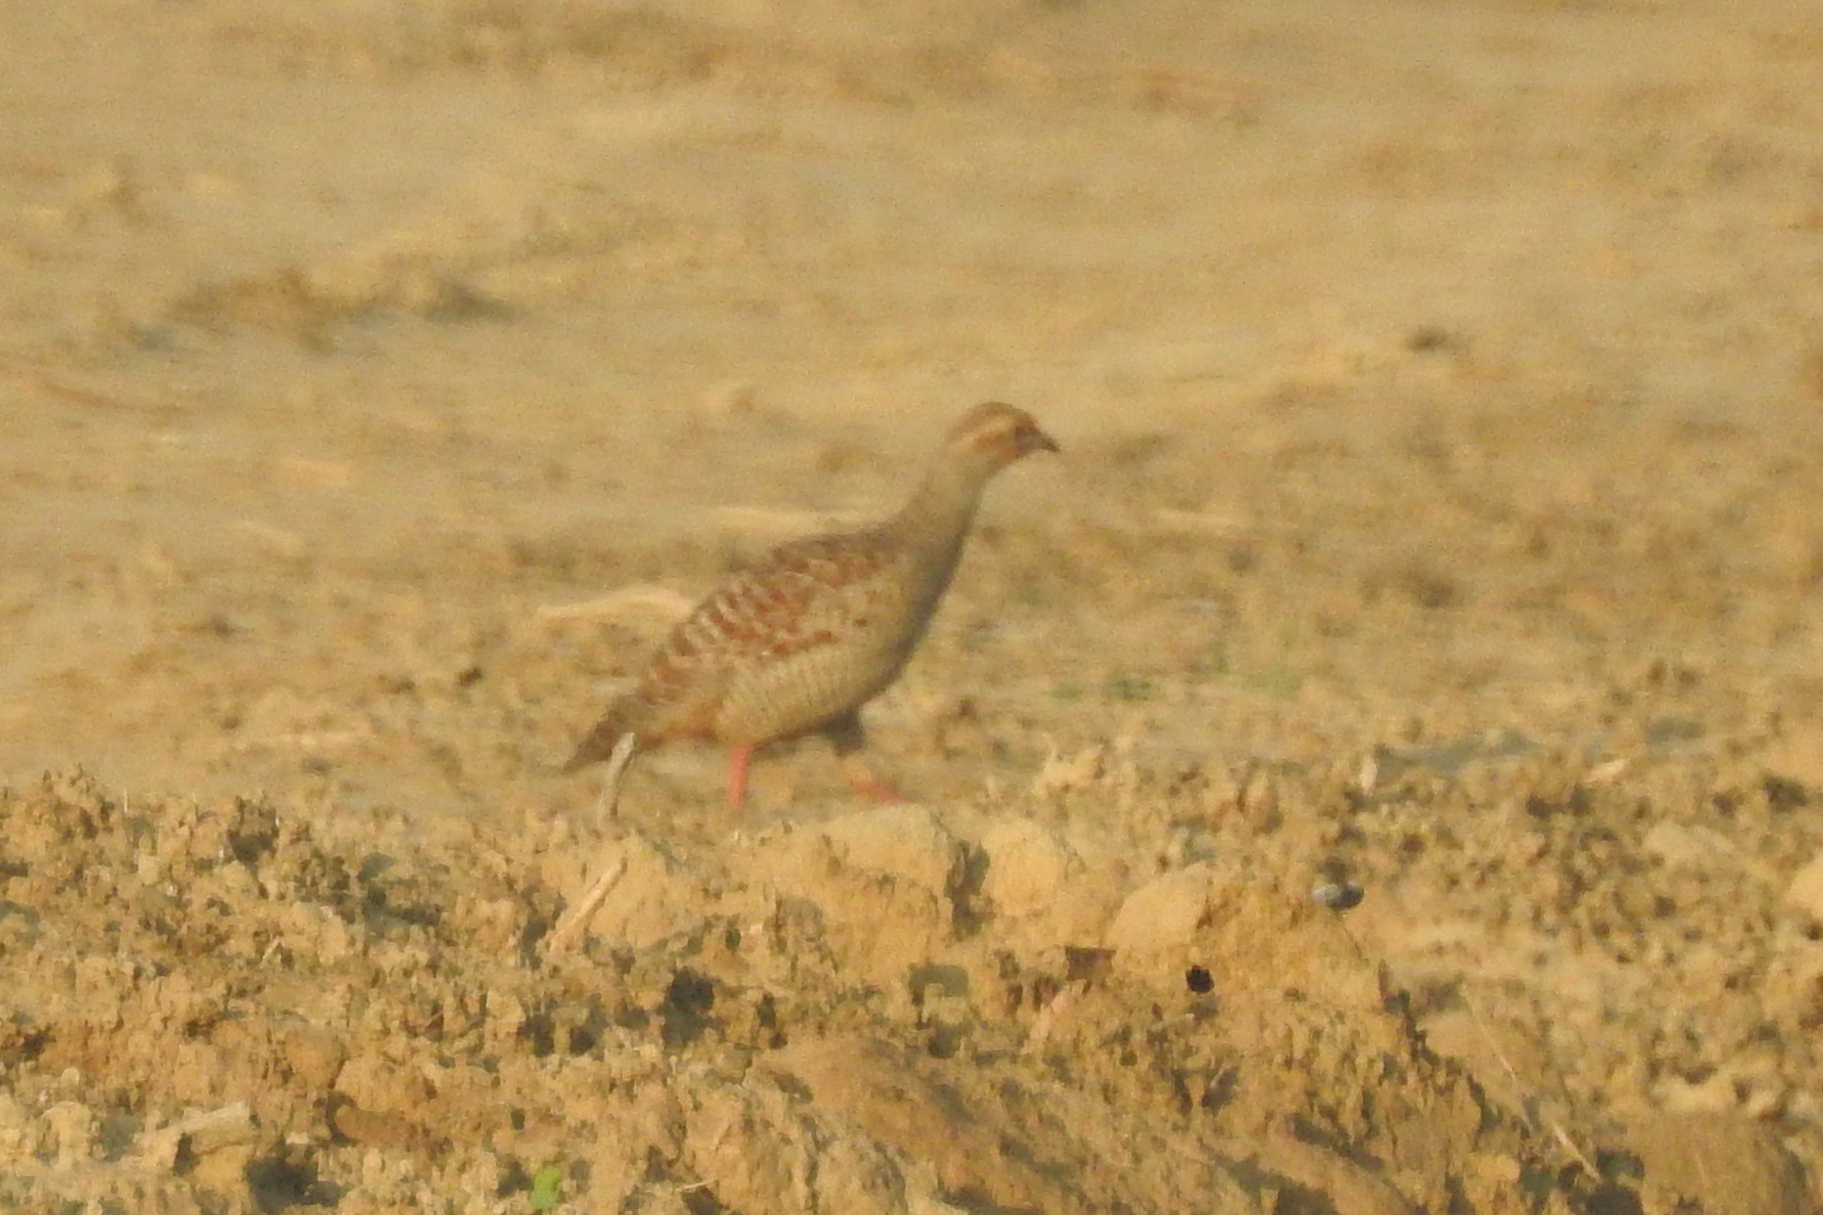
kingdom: Animalia
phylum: Chordata
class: Aves
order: Galliformes
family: Phasianidae
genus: Ortygornis
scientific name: Ortygornis pondicerianus
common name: Grey francolin
